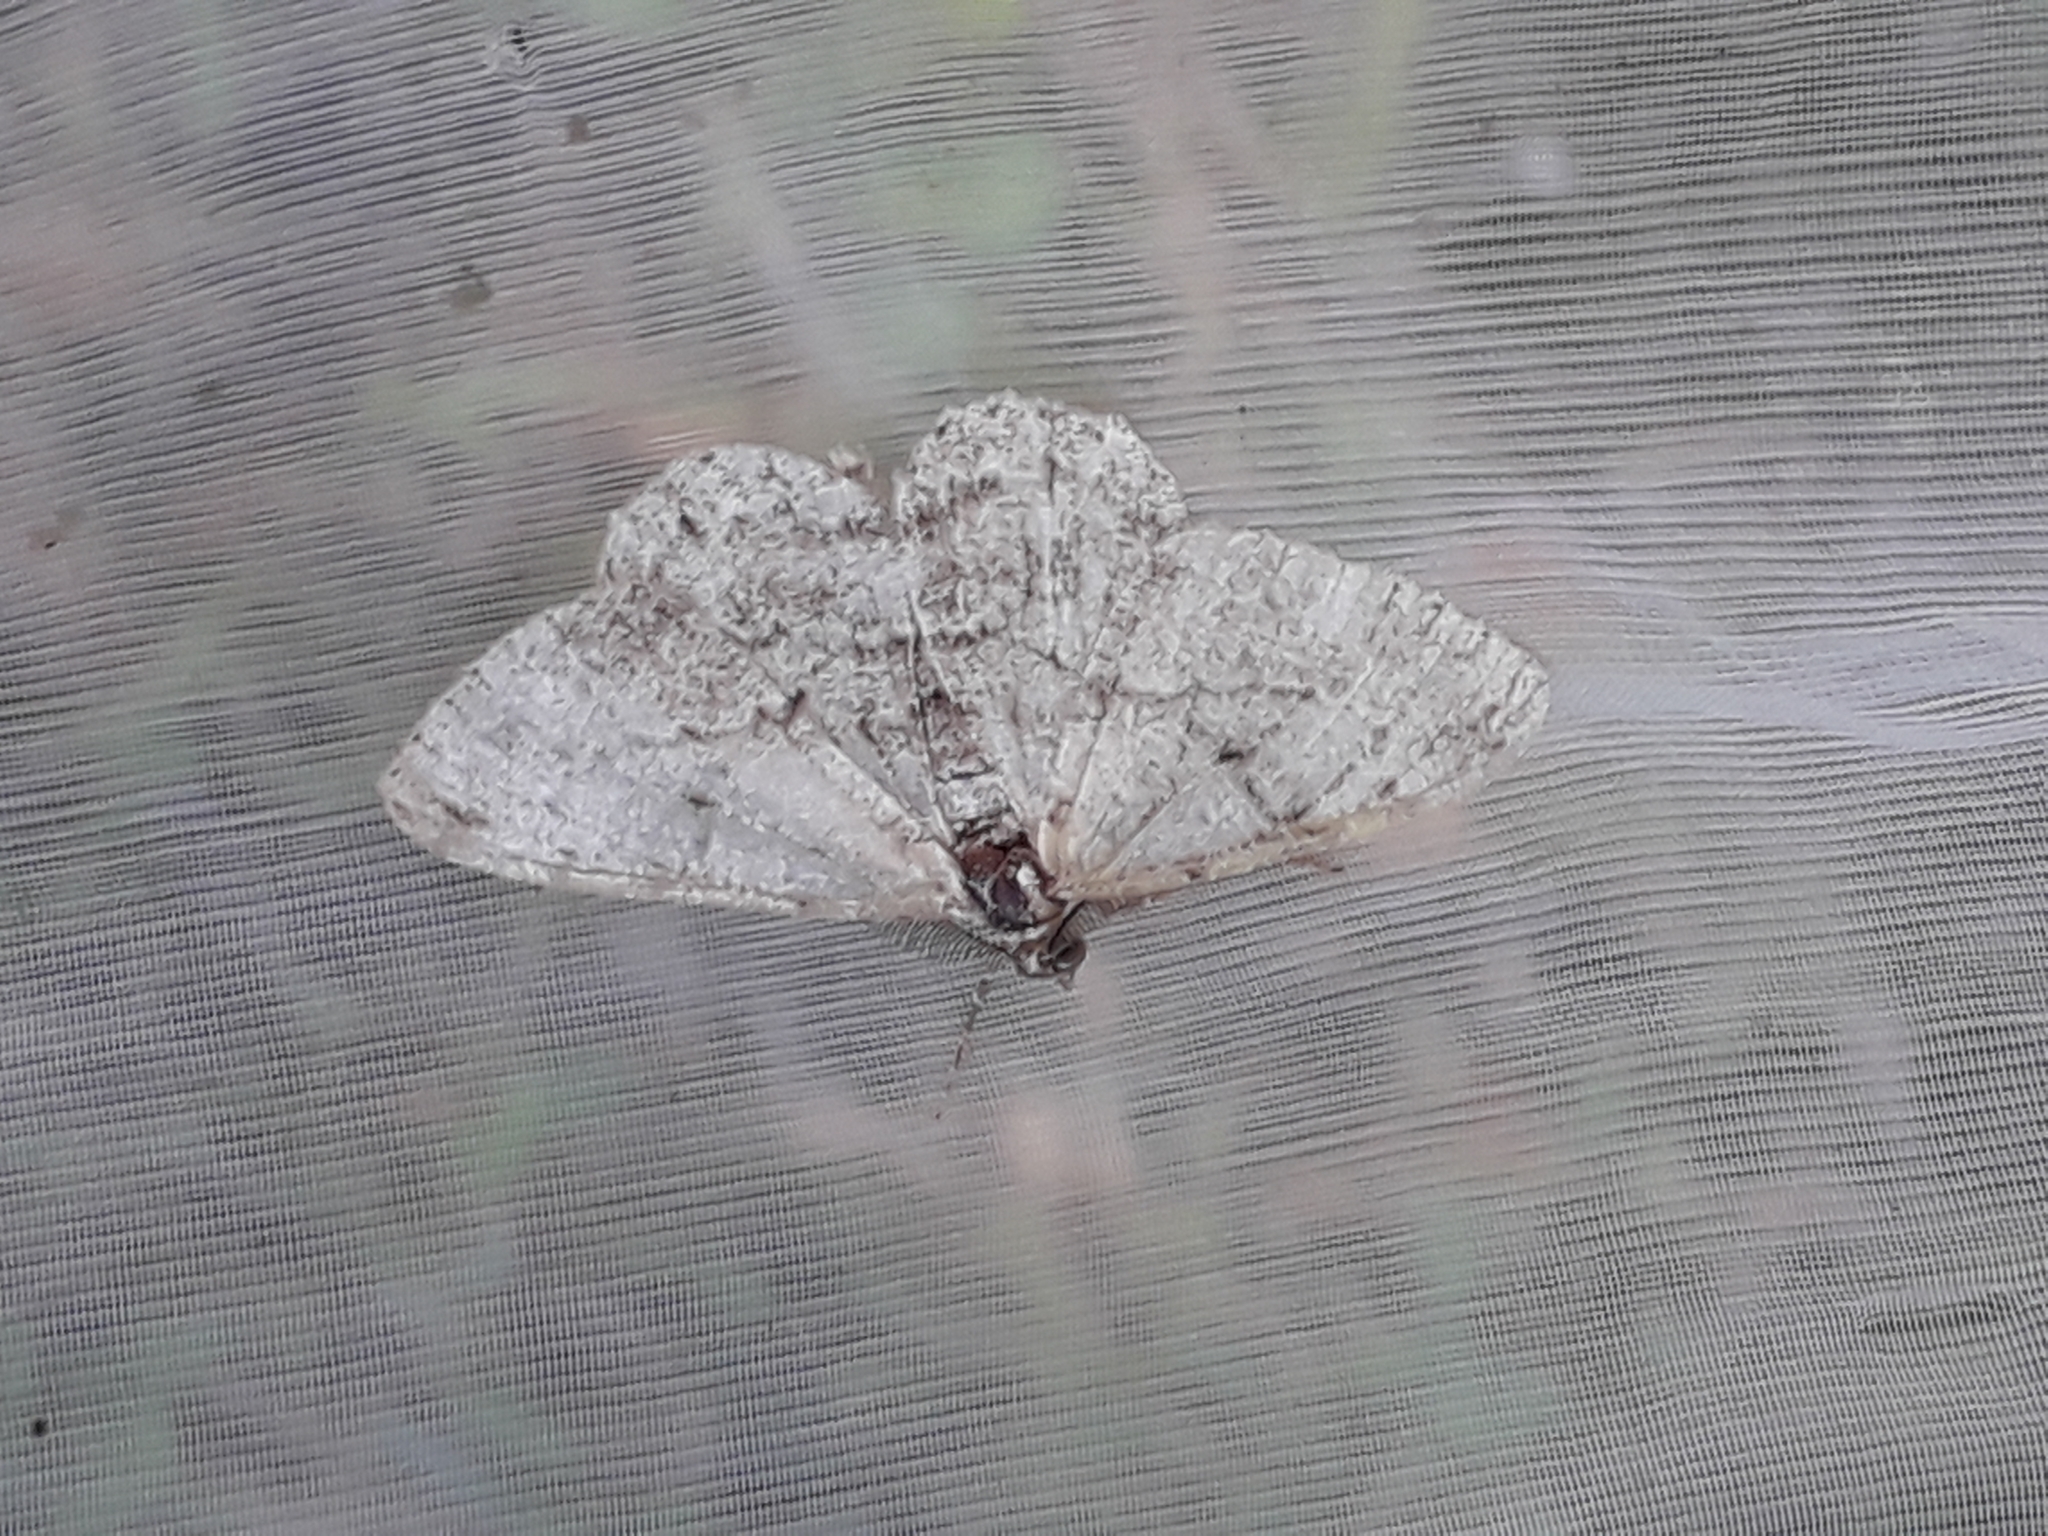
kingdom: Animalia
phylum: Arthropoda
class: Insecta
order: Lepidoptera
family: Geometridae
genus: Peribatodes
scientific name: Peribatodes rhomboidaria
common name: Willow beauty
